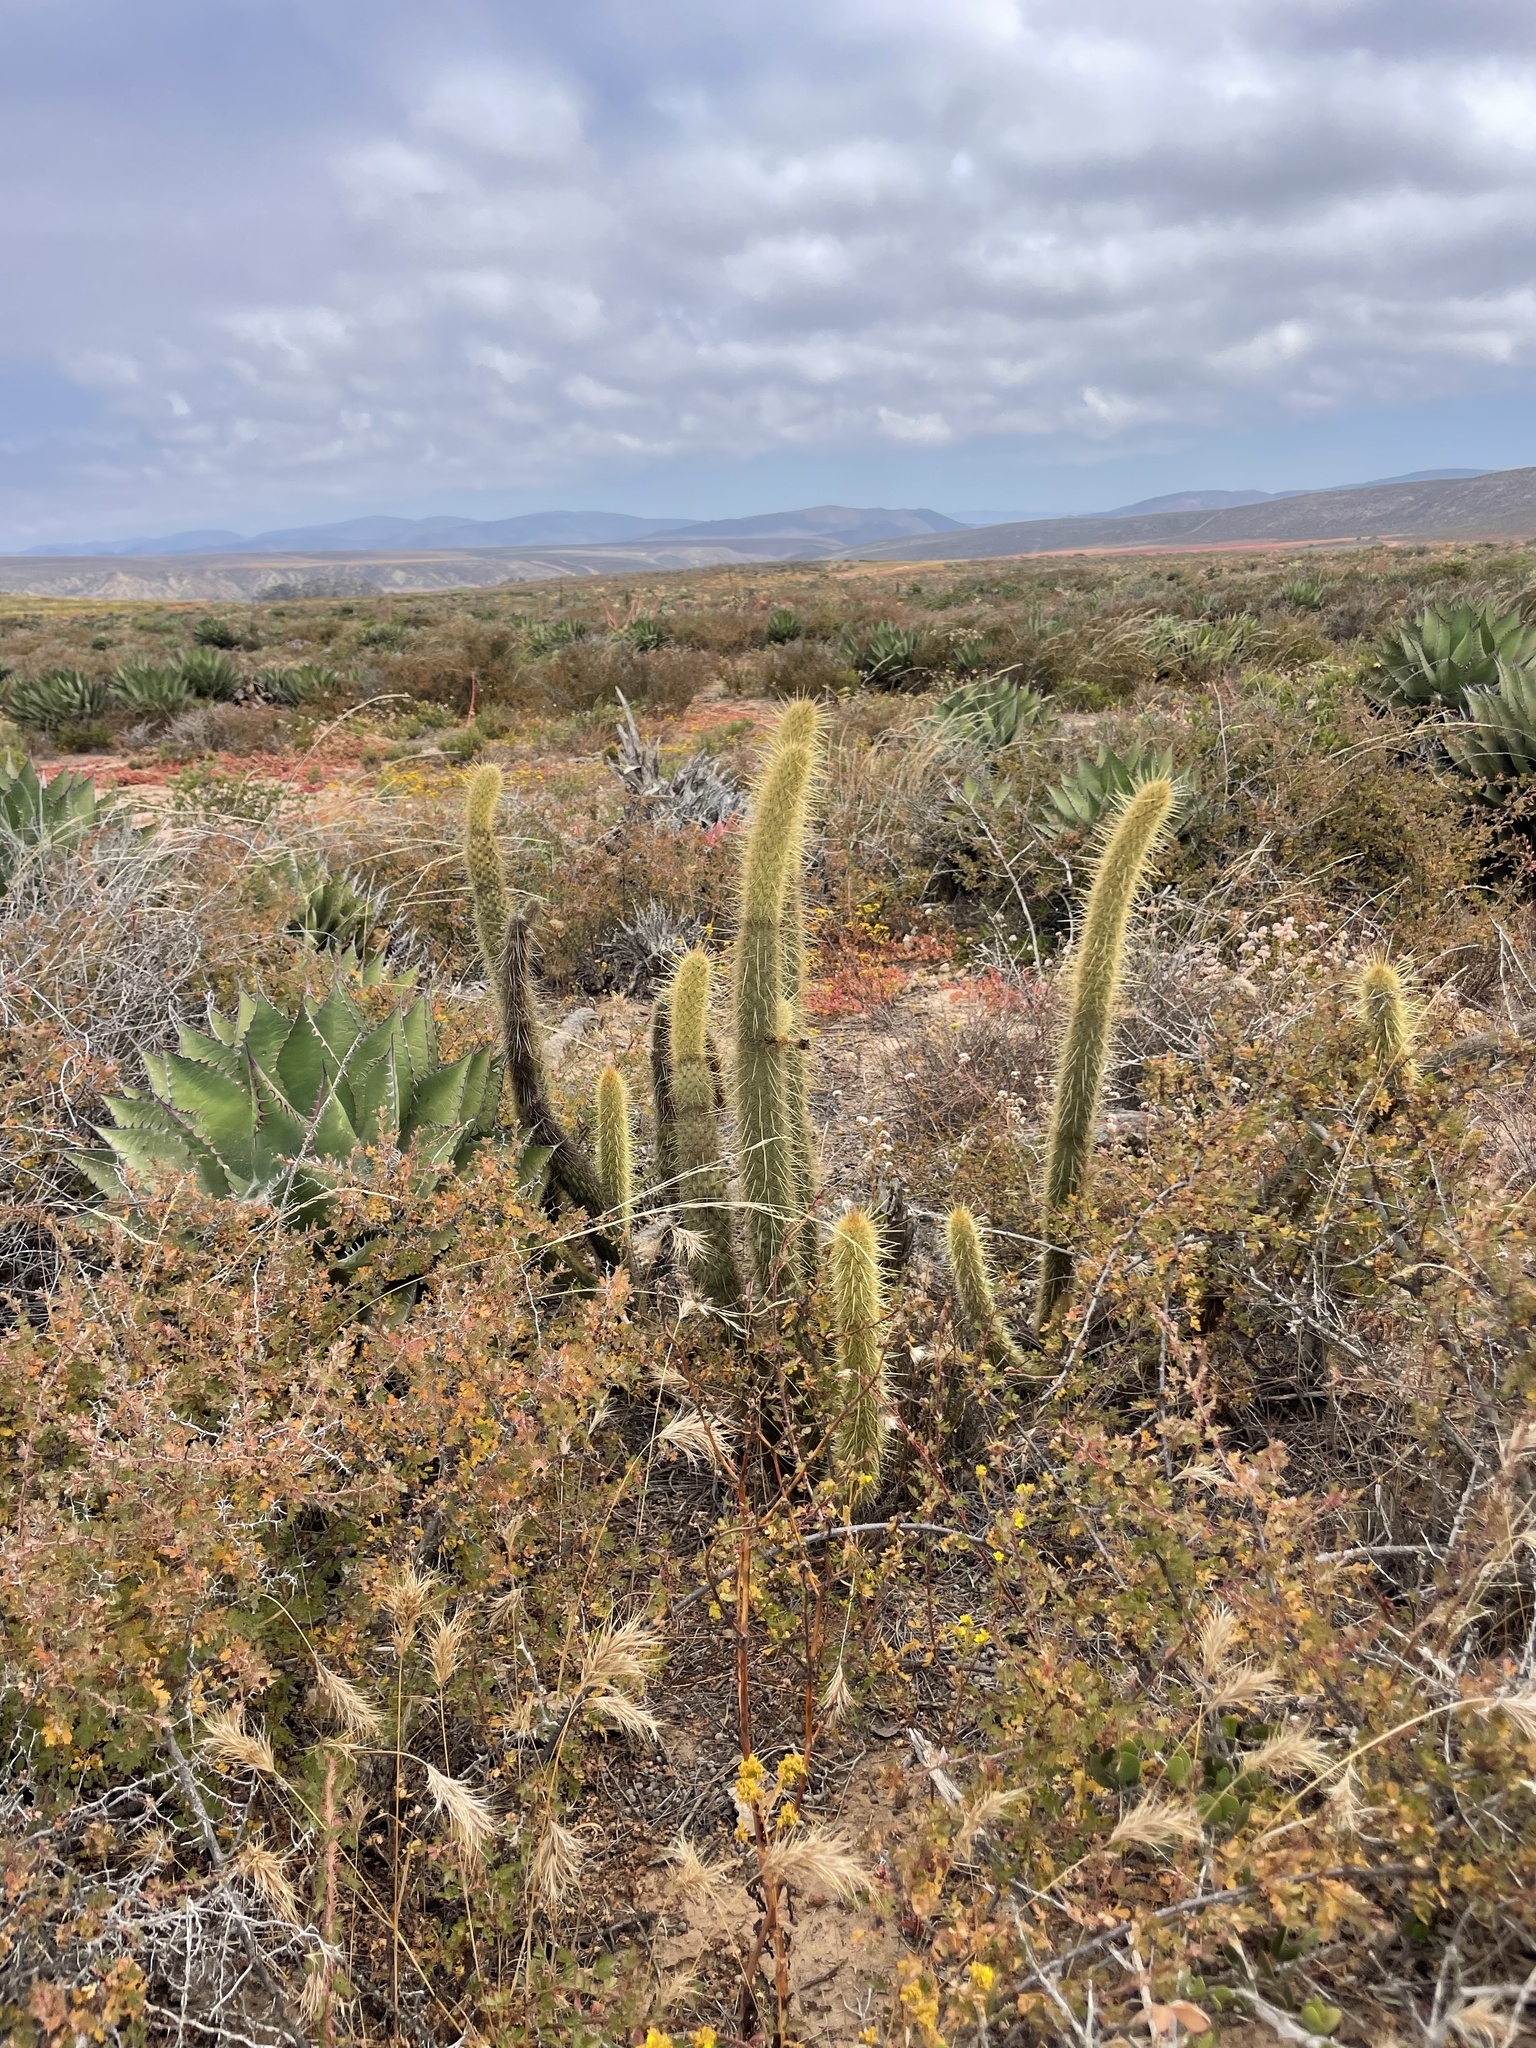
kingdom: Plantae
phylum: Tracheophyta
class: Magnoliopsida
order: Caryophyllales
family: Cactaceae
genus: Bergerocactus
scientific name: Bergerocactus emoryi
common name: Golden snakecactus
